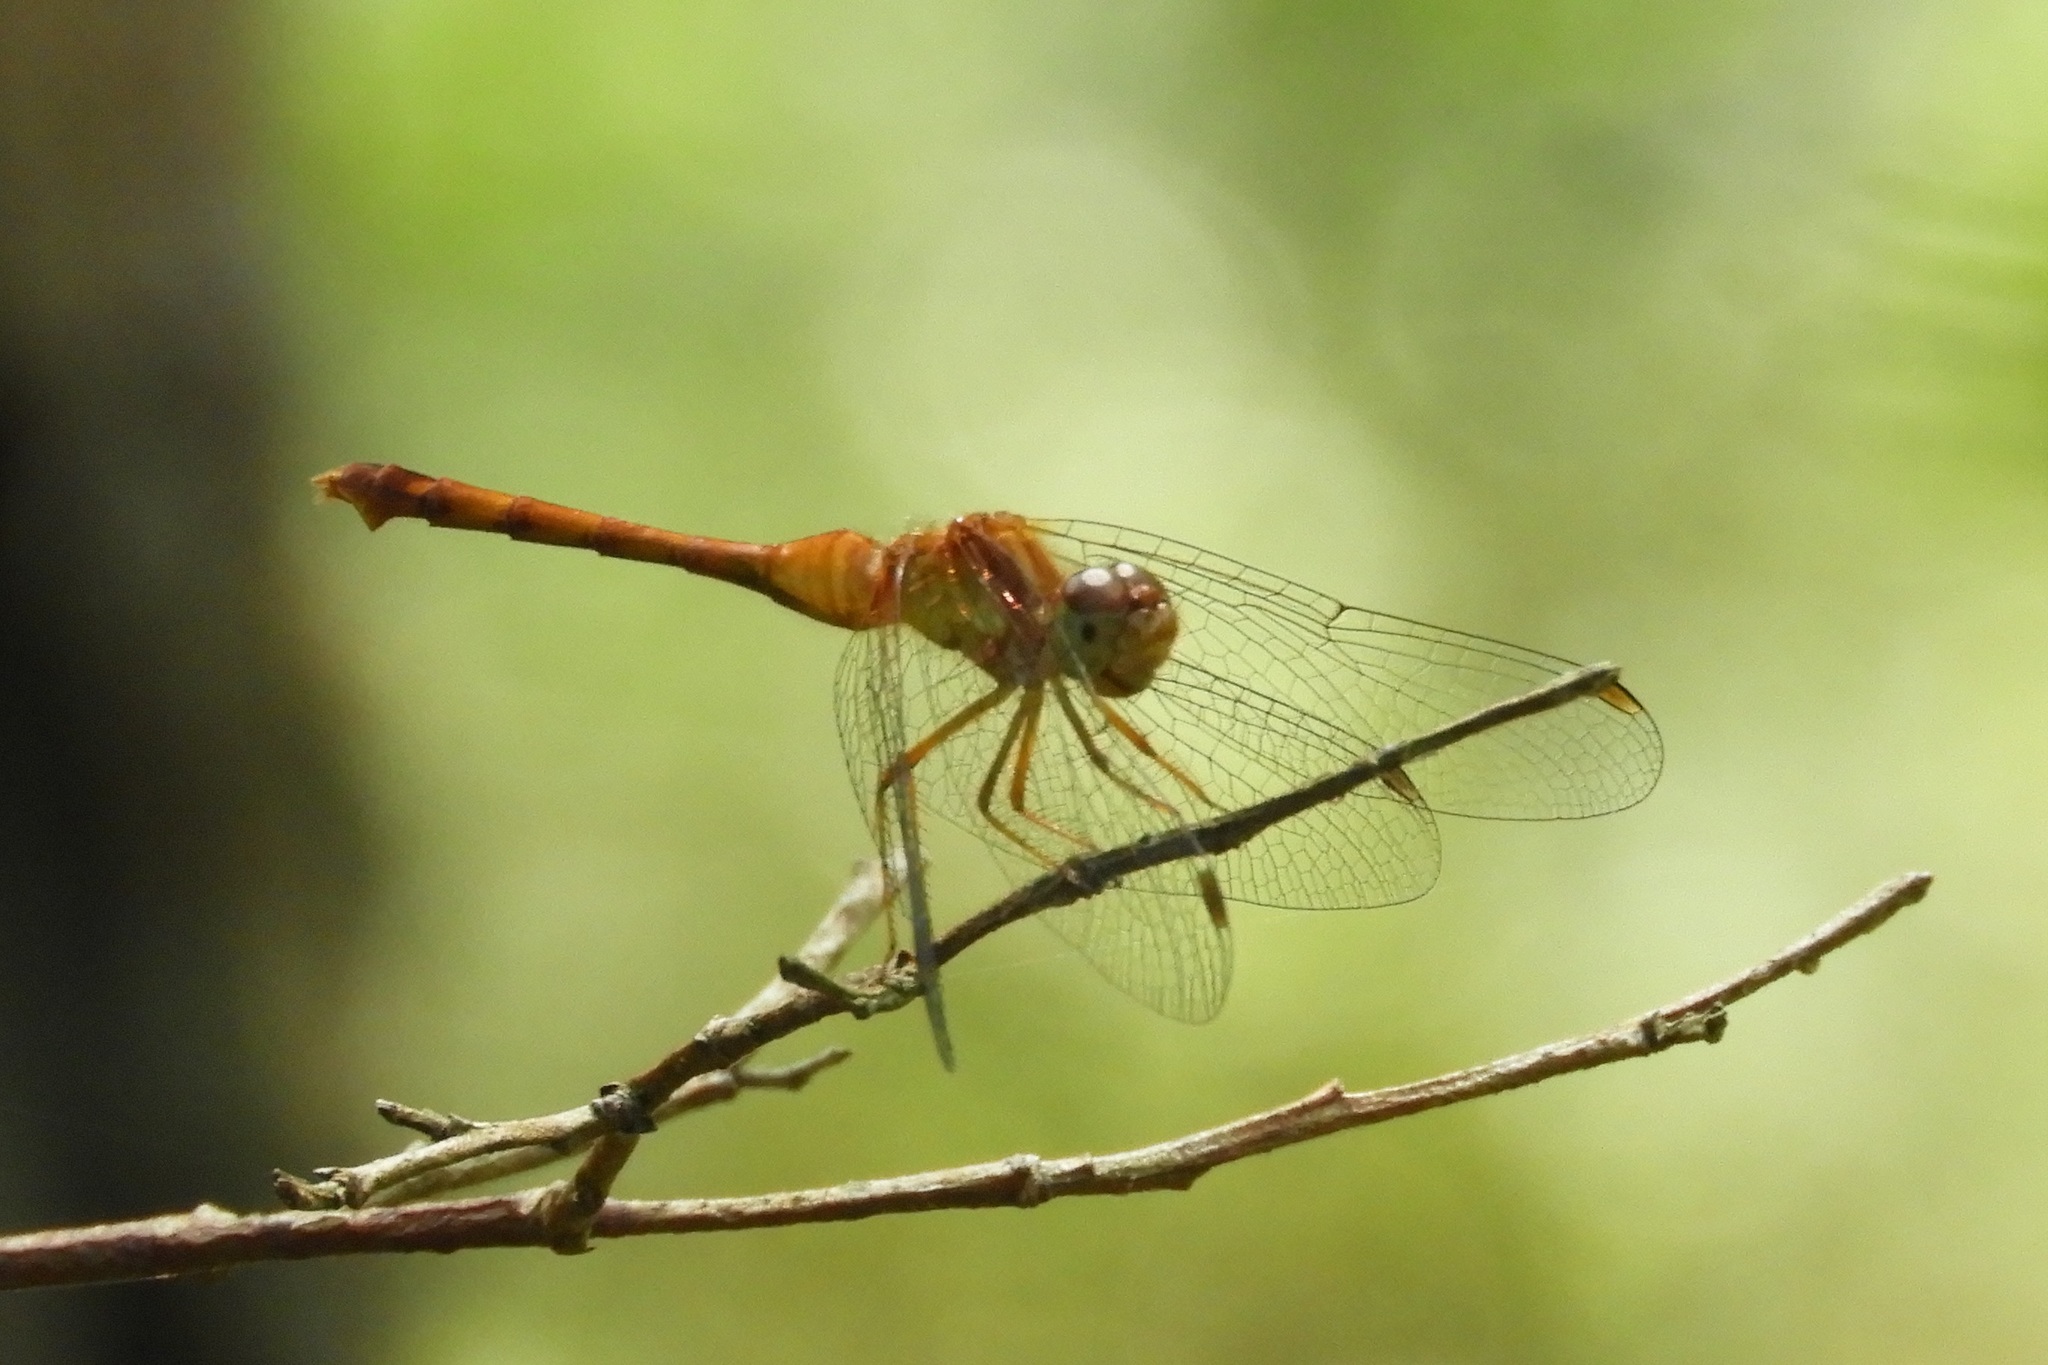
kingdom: Animalia
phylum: Arthropoda
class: Insecta
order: Odonata
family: Libellulidae
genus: Sympetrum
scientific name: Sympetrum vicinum
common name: Autumn meadowhawk
